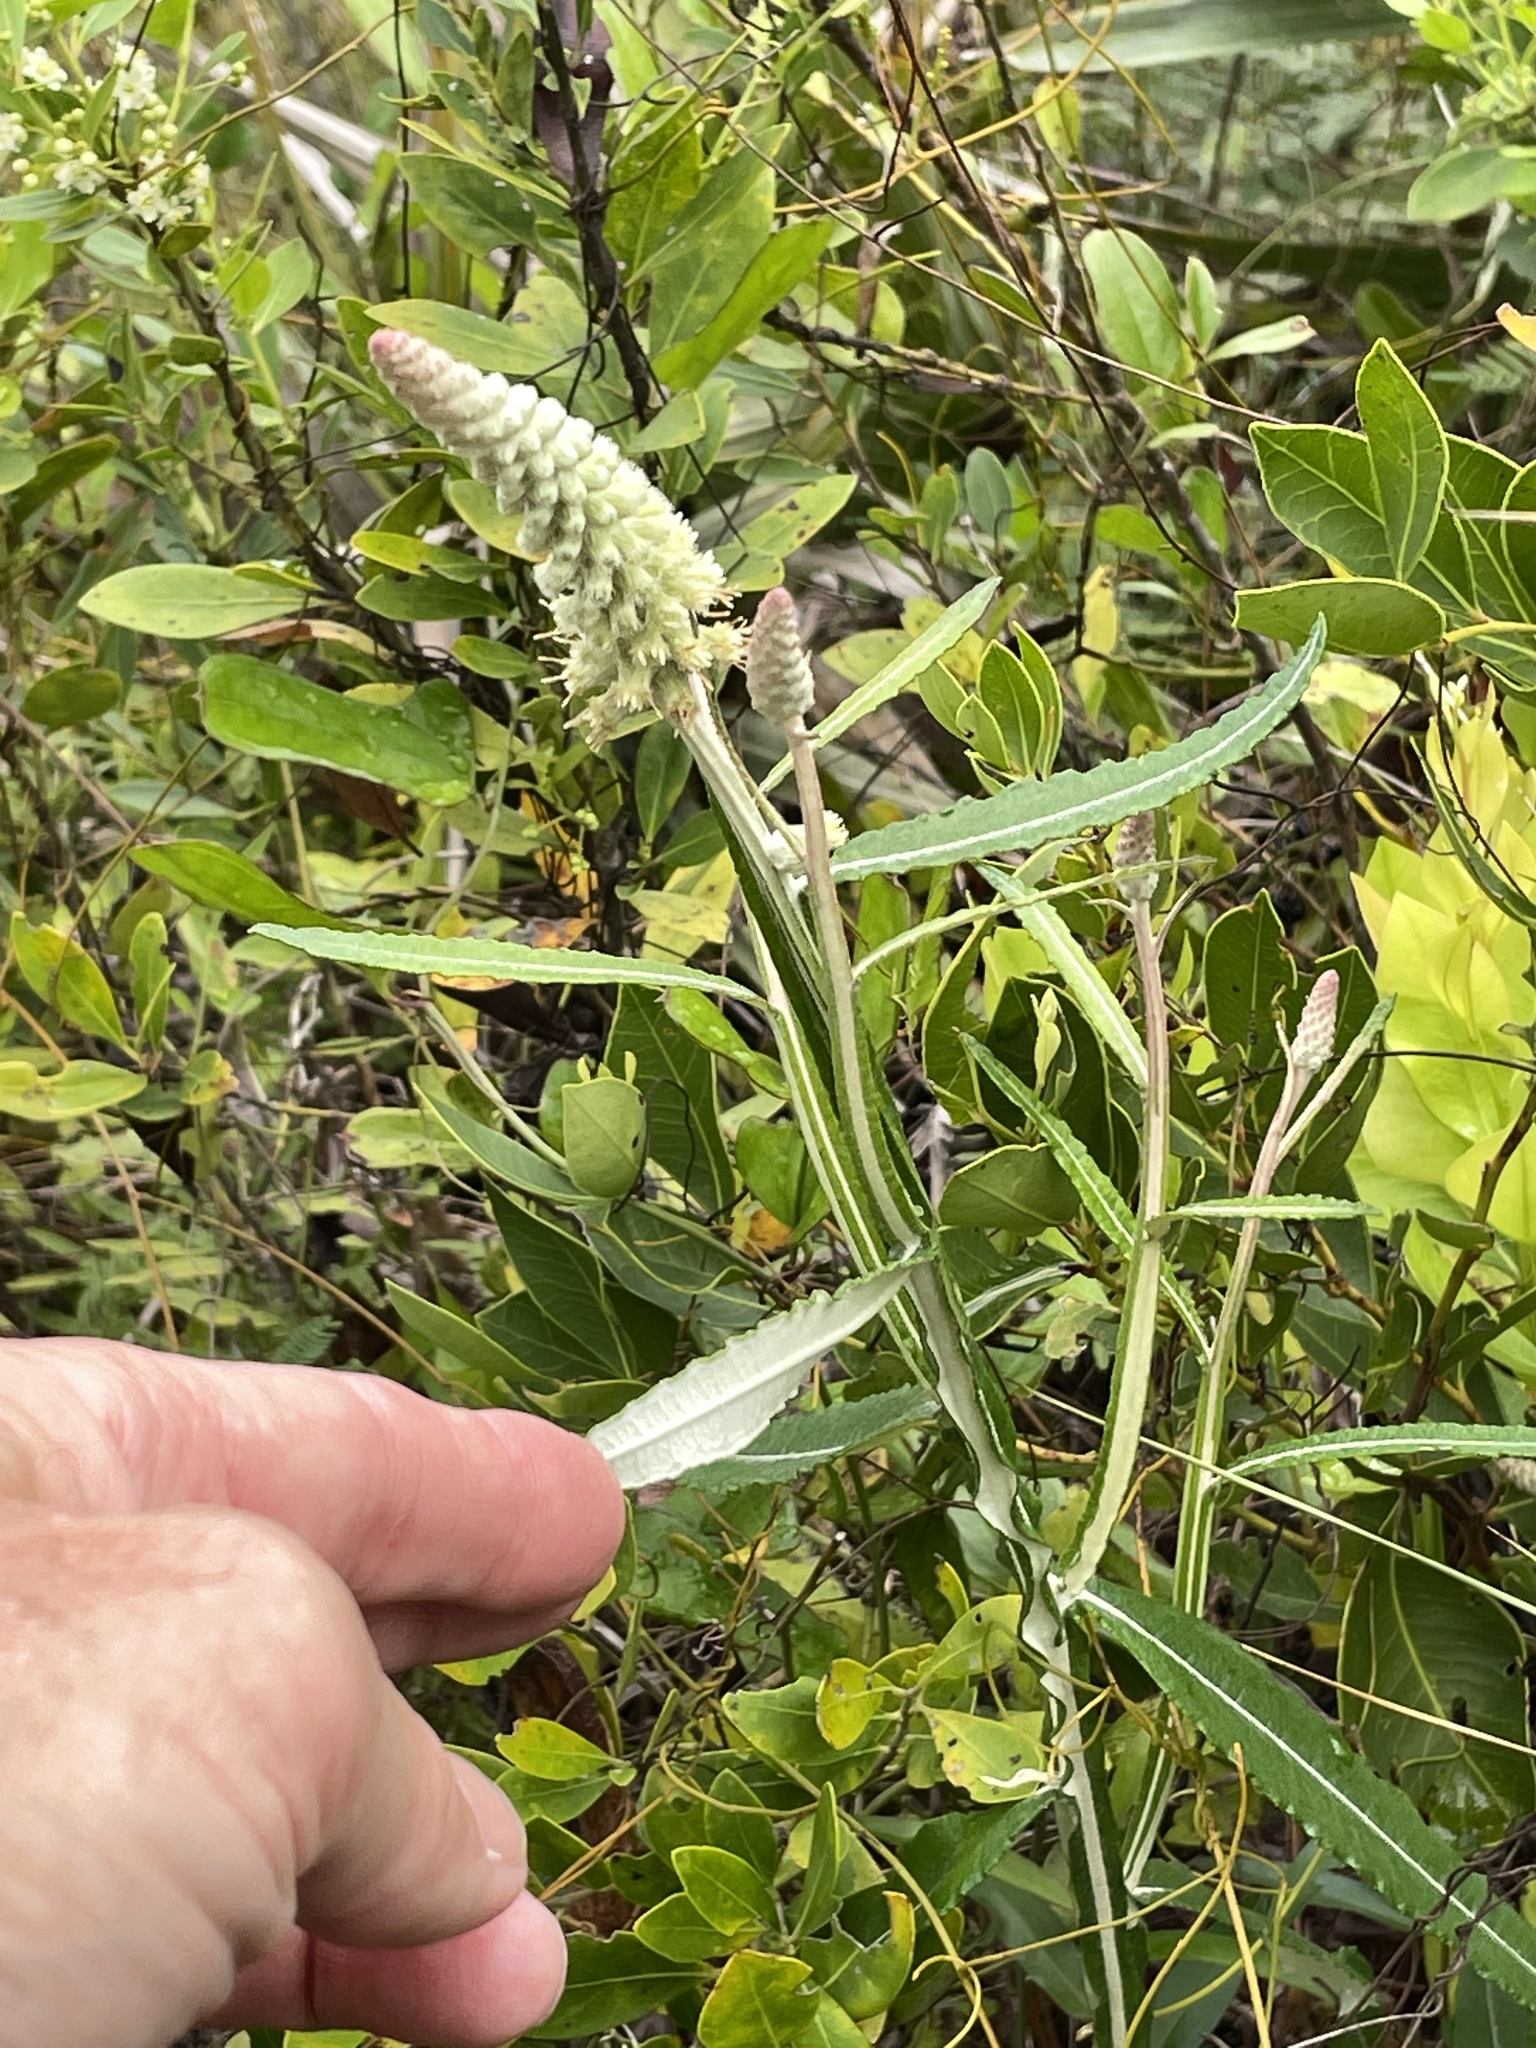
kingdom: Plantae
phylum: Tracheophyta
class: Magnoliopsida
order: Asterales
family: Asteraceae
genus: Pterocaulon
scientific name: Pterocaulon pycnostachyum
